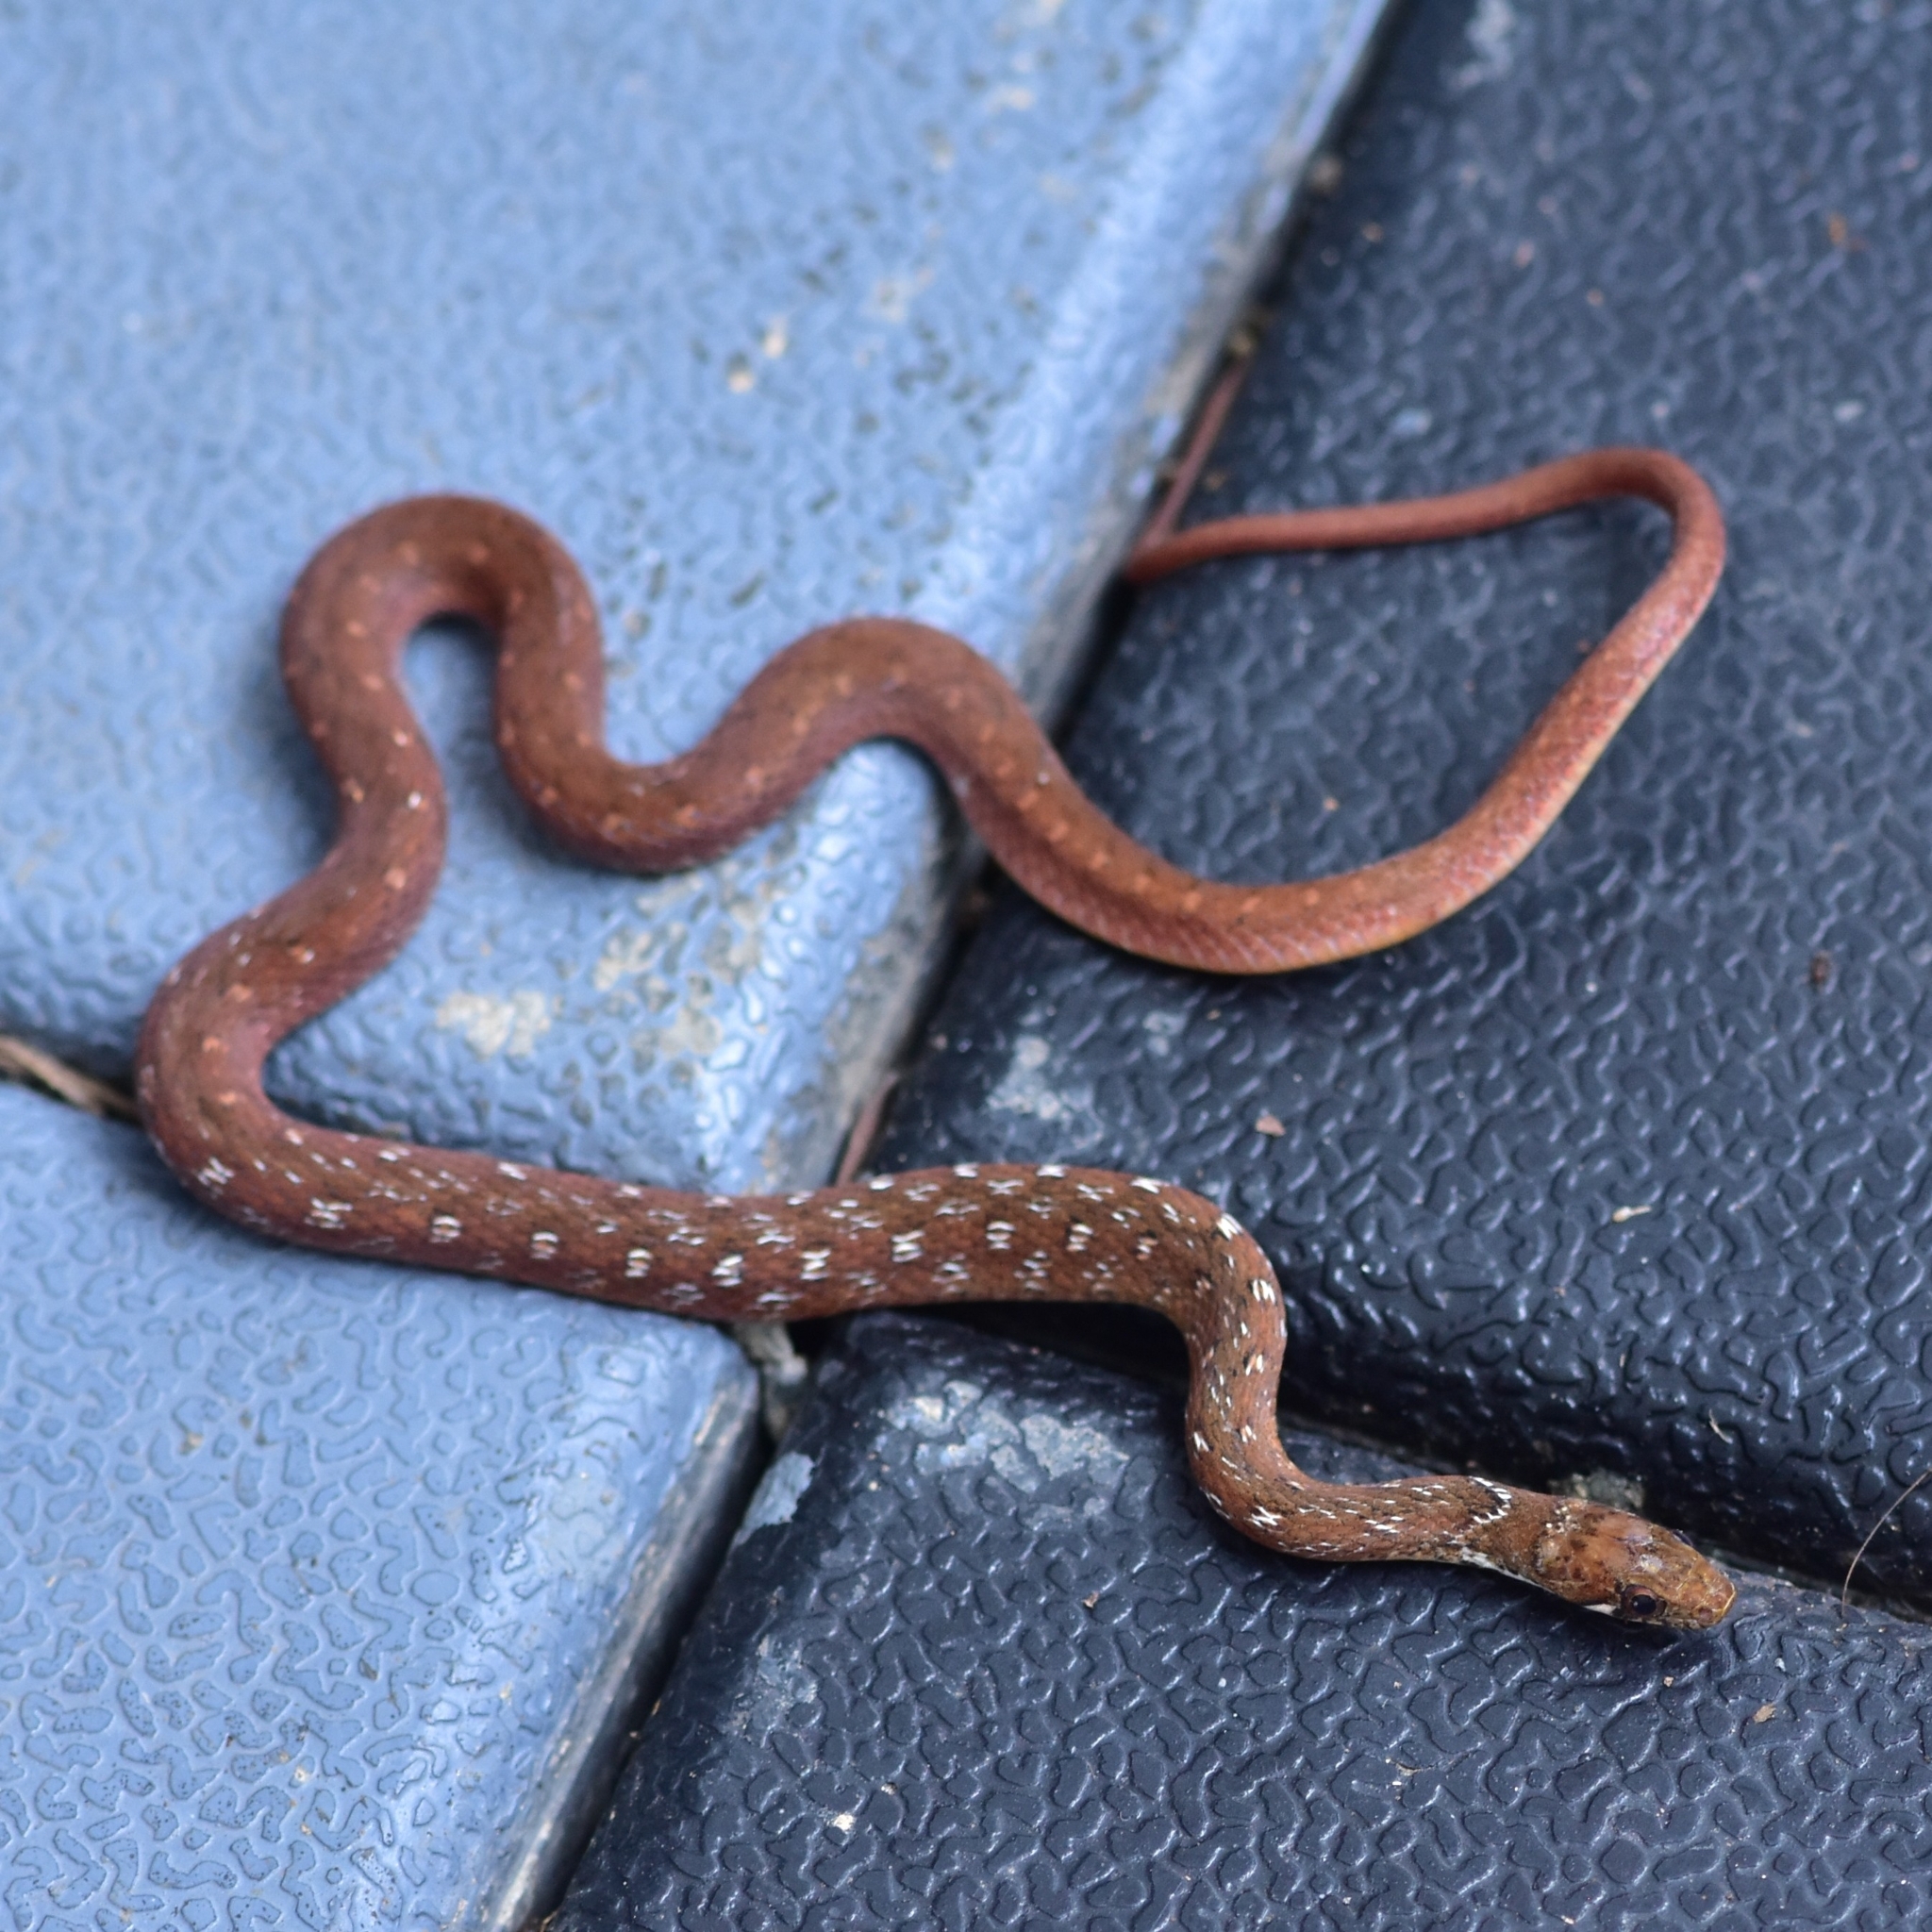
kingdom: Animalia
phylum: Chordata
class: Squamata
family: Colubridae
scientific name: Colubridae
